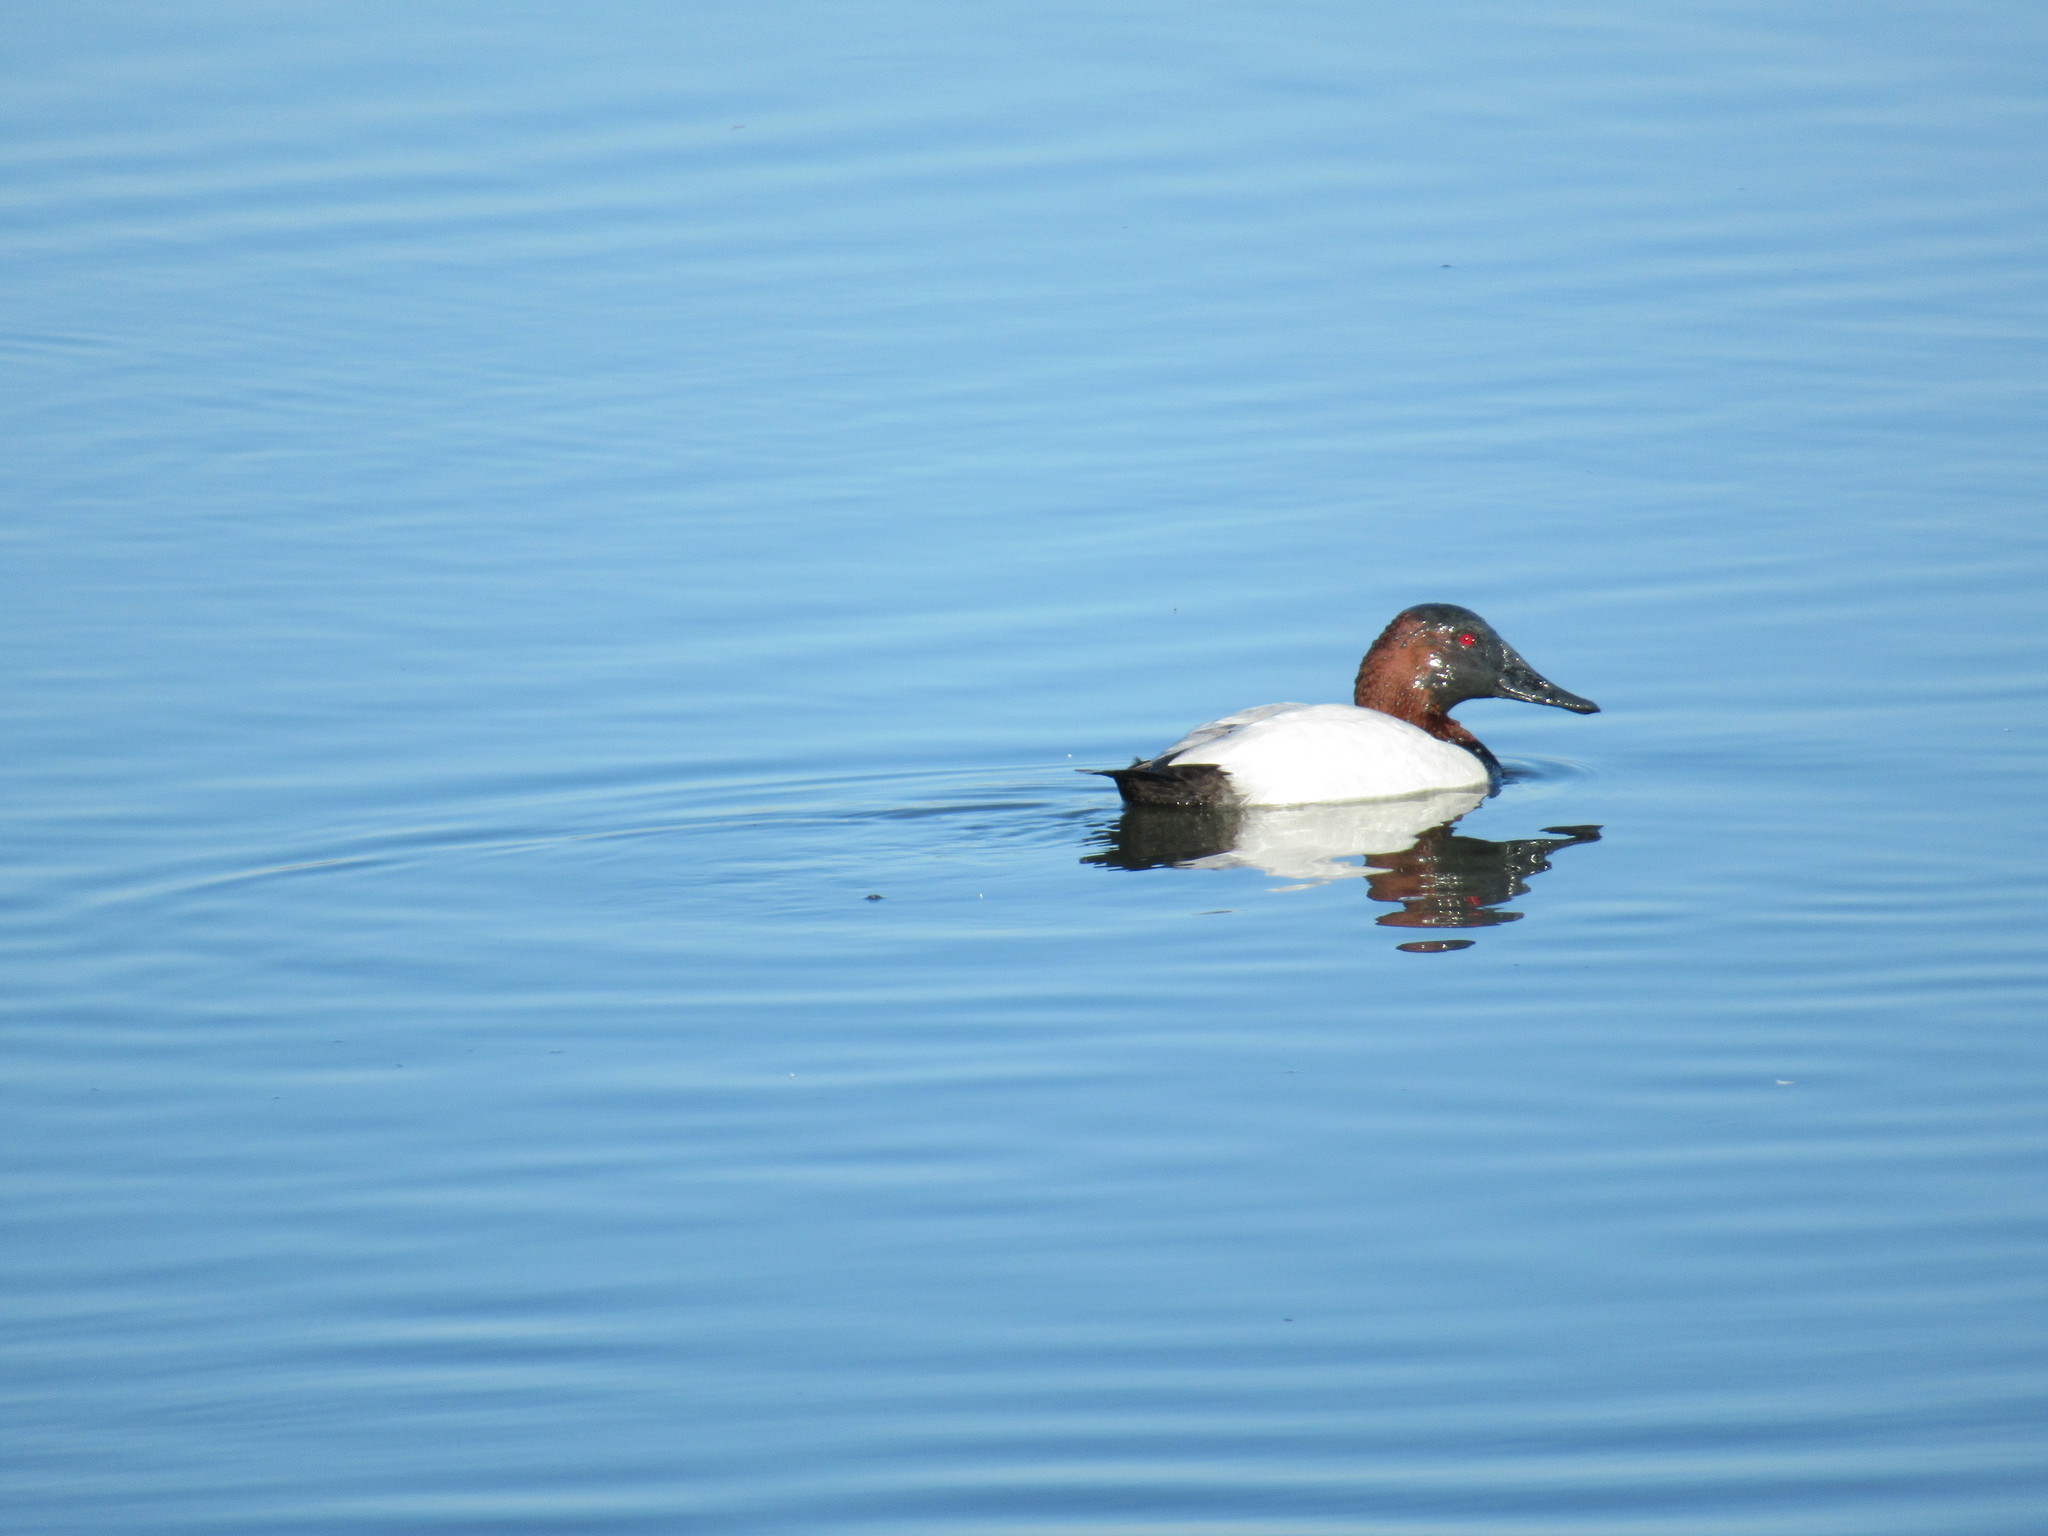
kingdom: Animalia
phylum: Chordata
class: Aves
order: Anseriformes
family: Anatidae
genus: Aythya
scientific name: Aythya valisineria
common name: Canvasback
